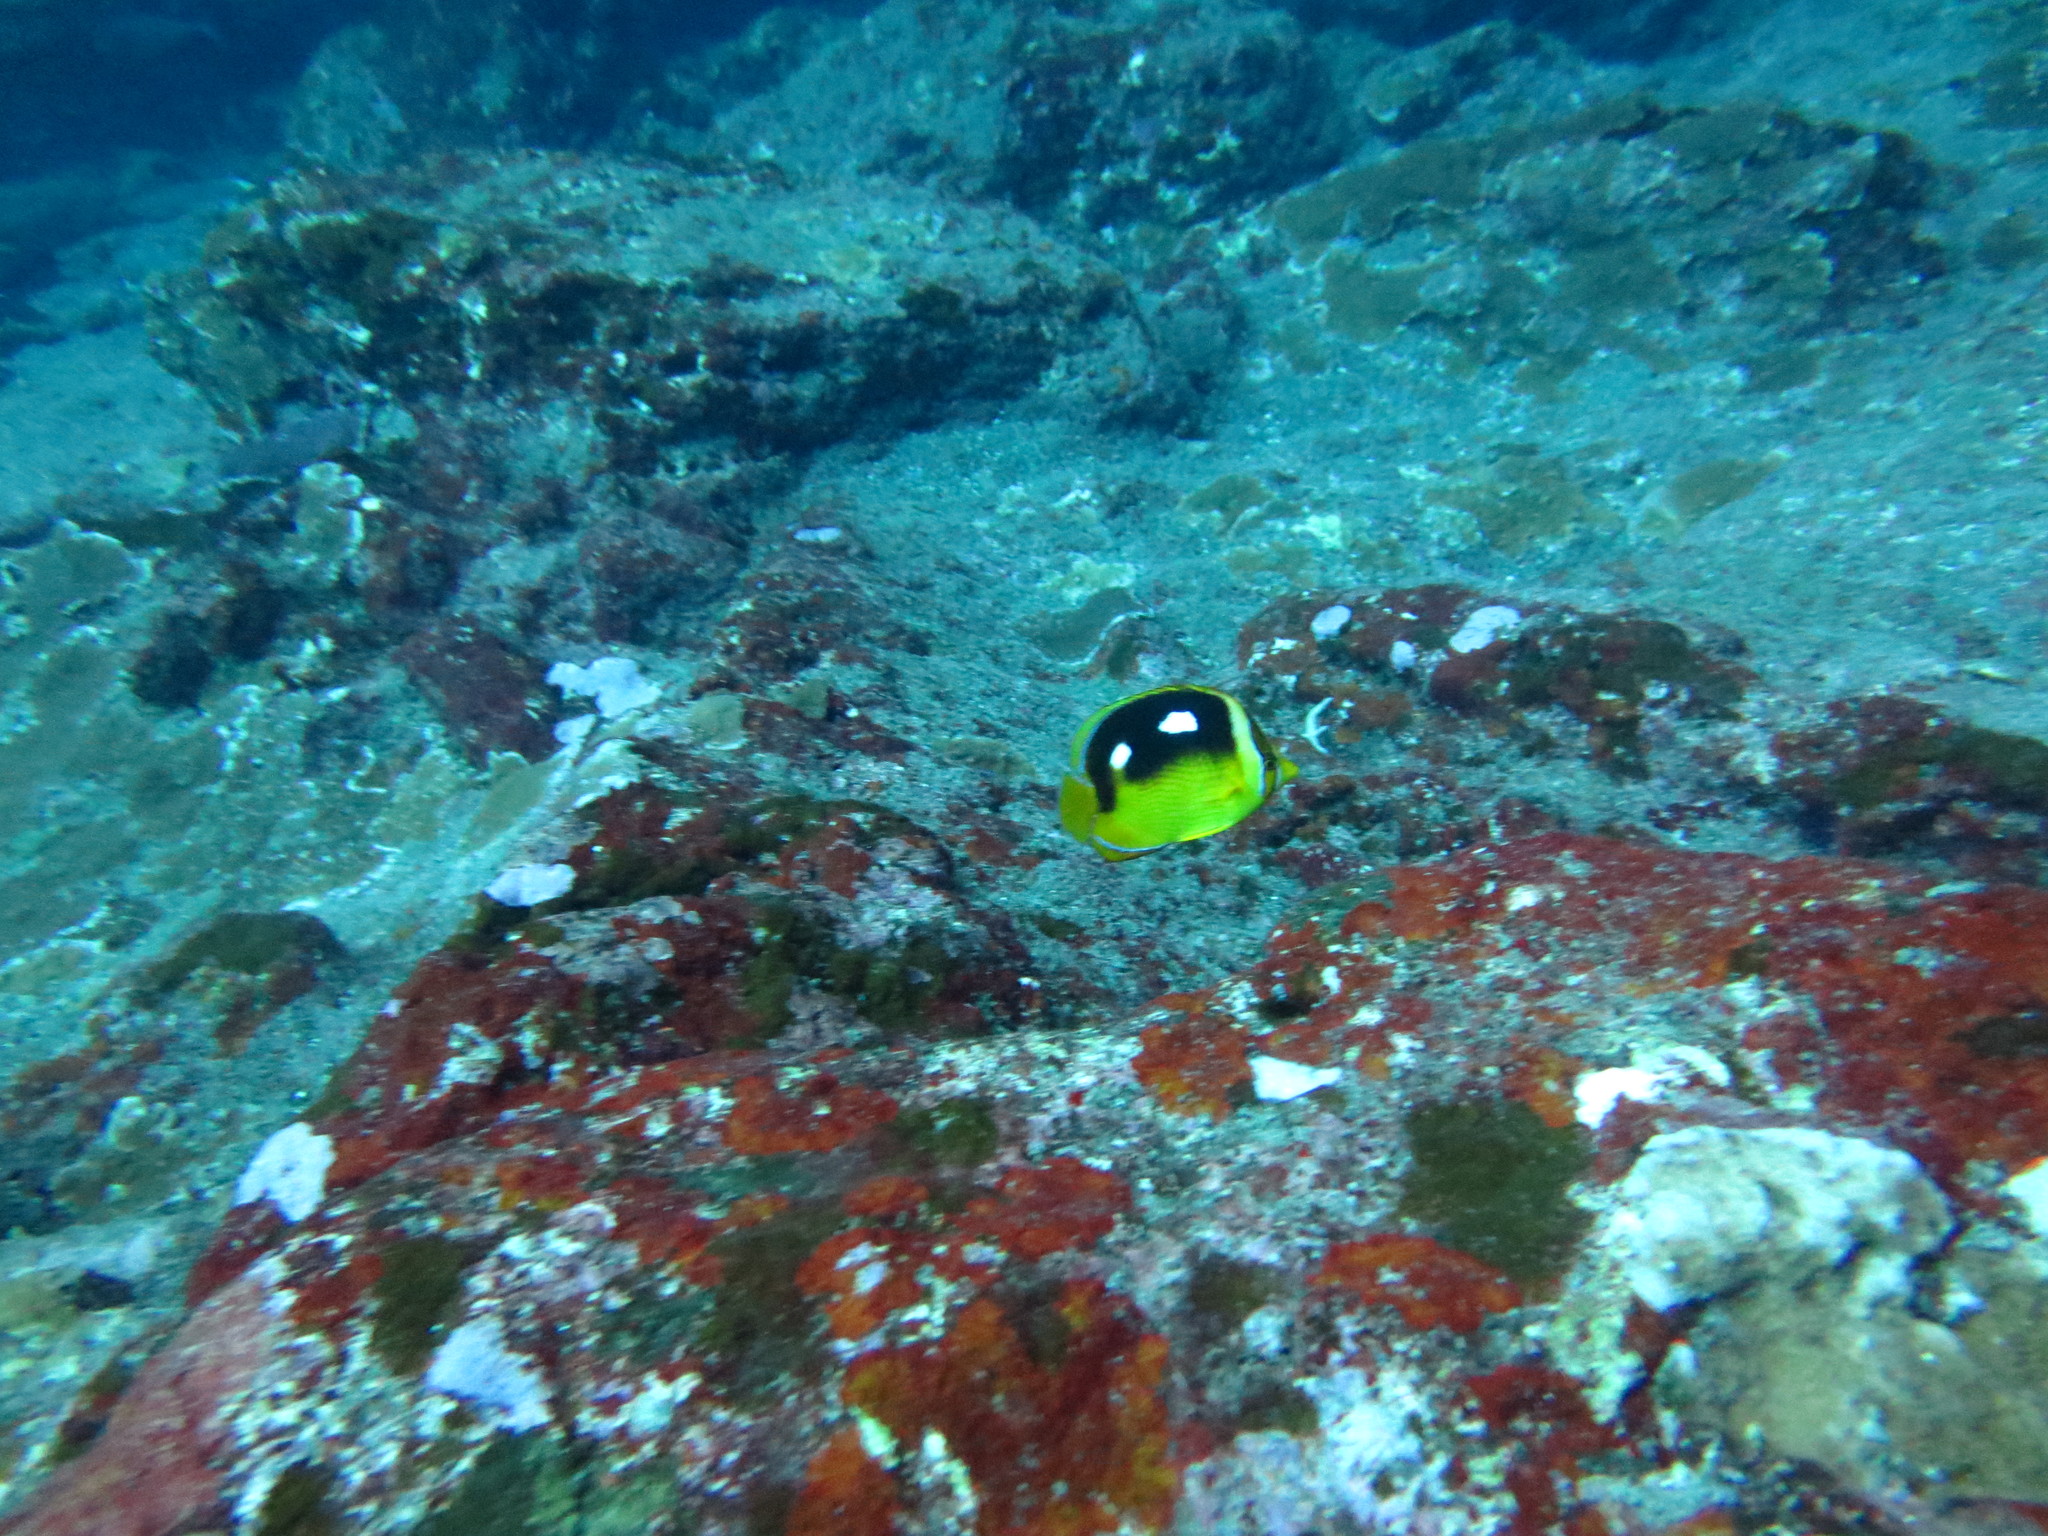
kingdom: Animalia
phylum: Chordata
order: Perciformes
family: Chaetodontidae
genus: Chaetodon
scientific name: Chaetodon quadrimaculatus
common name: Fourspot butterflyfish
